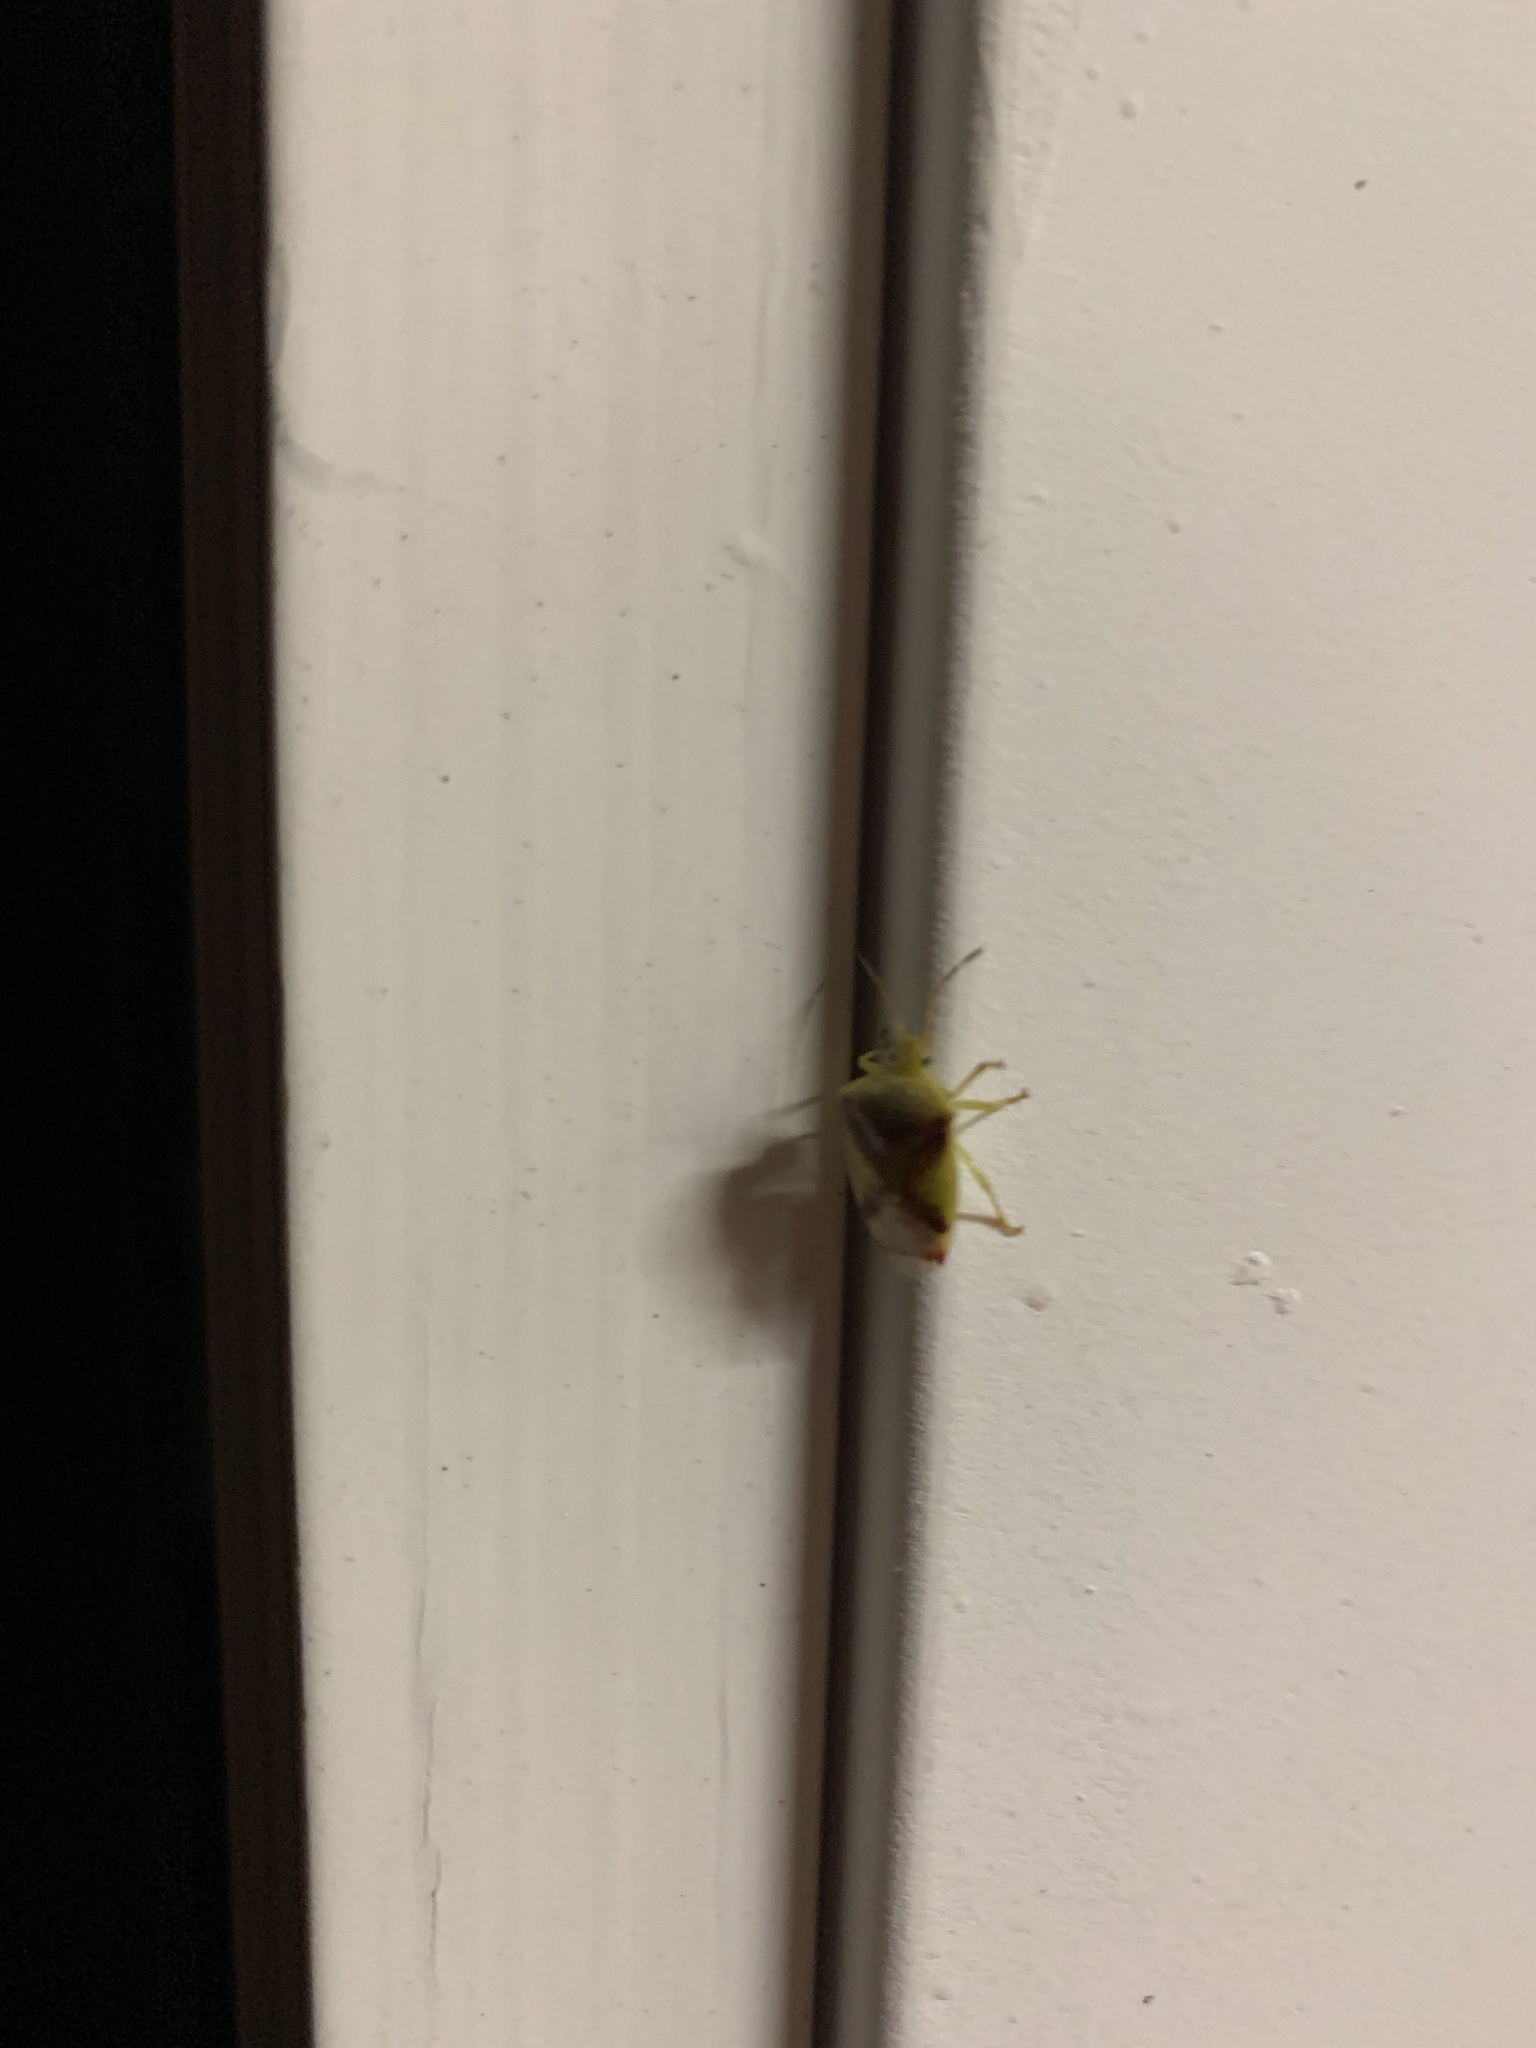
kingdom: Animalia
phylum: Arthropoda
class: Insecta
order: Hemiptera
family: Acanthosomatidae
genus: Elasmostethus
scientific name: Elasmostethus cruciatus
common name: Red-cross shield bug
